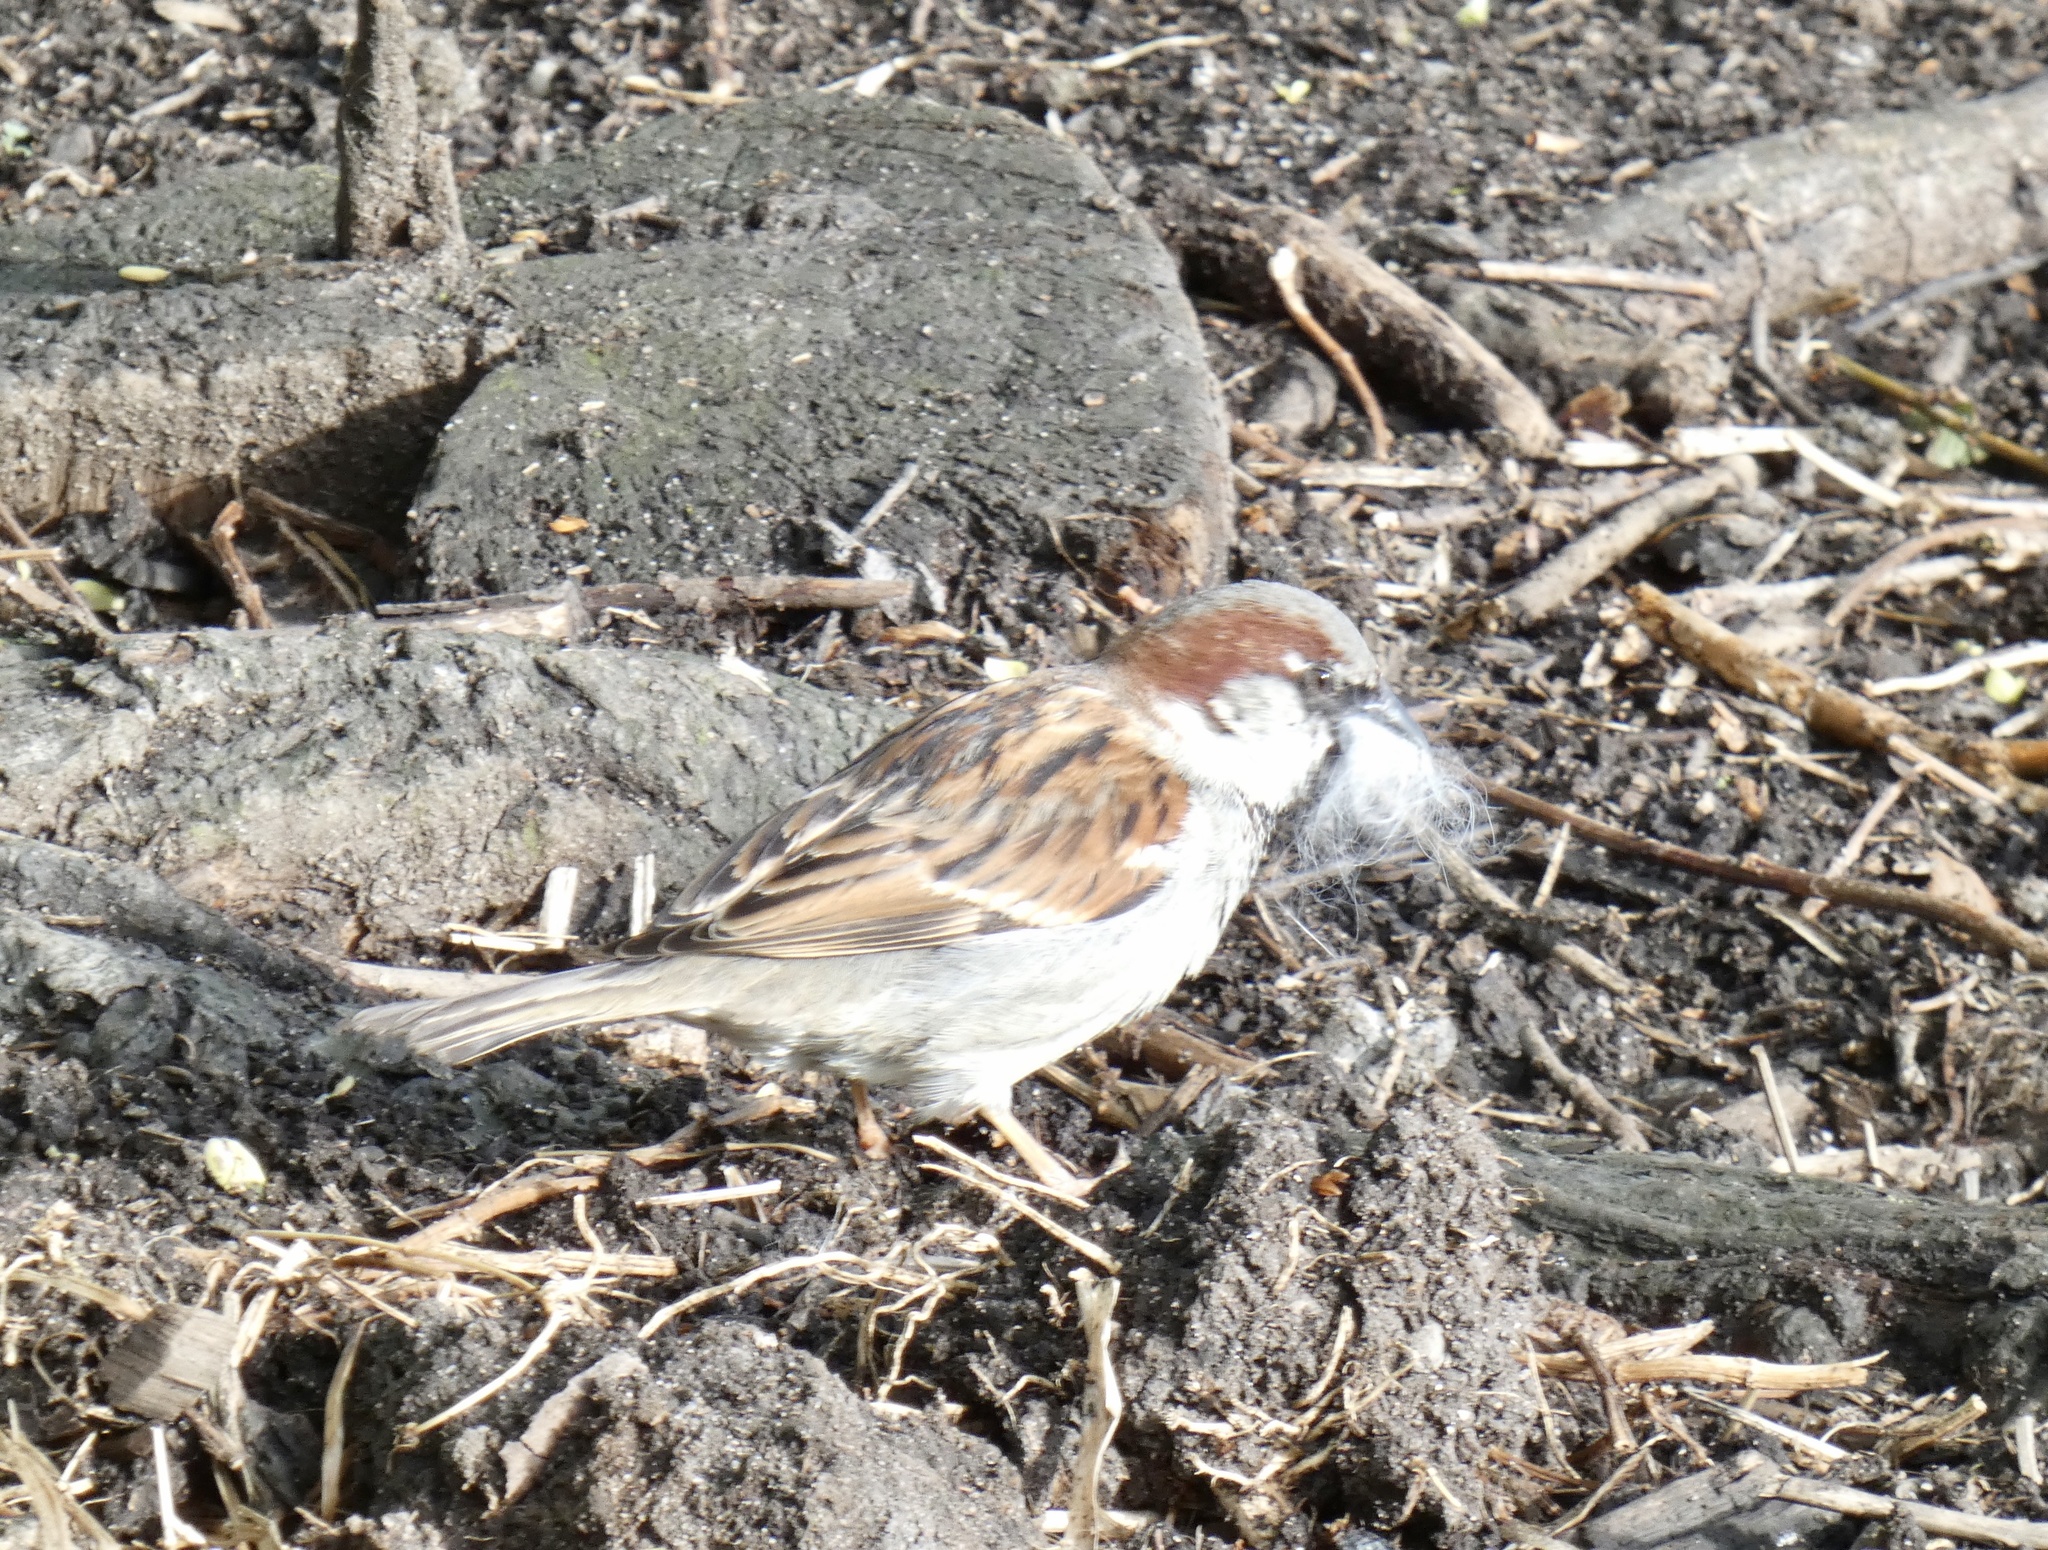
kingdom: Animalia
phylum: Chordata
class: Aves
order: Passeriformes
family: Passeridae
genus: Passer
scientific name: Passer domesticus
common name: House sparrow
